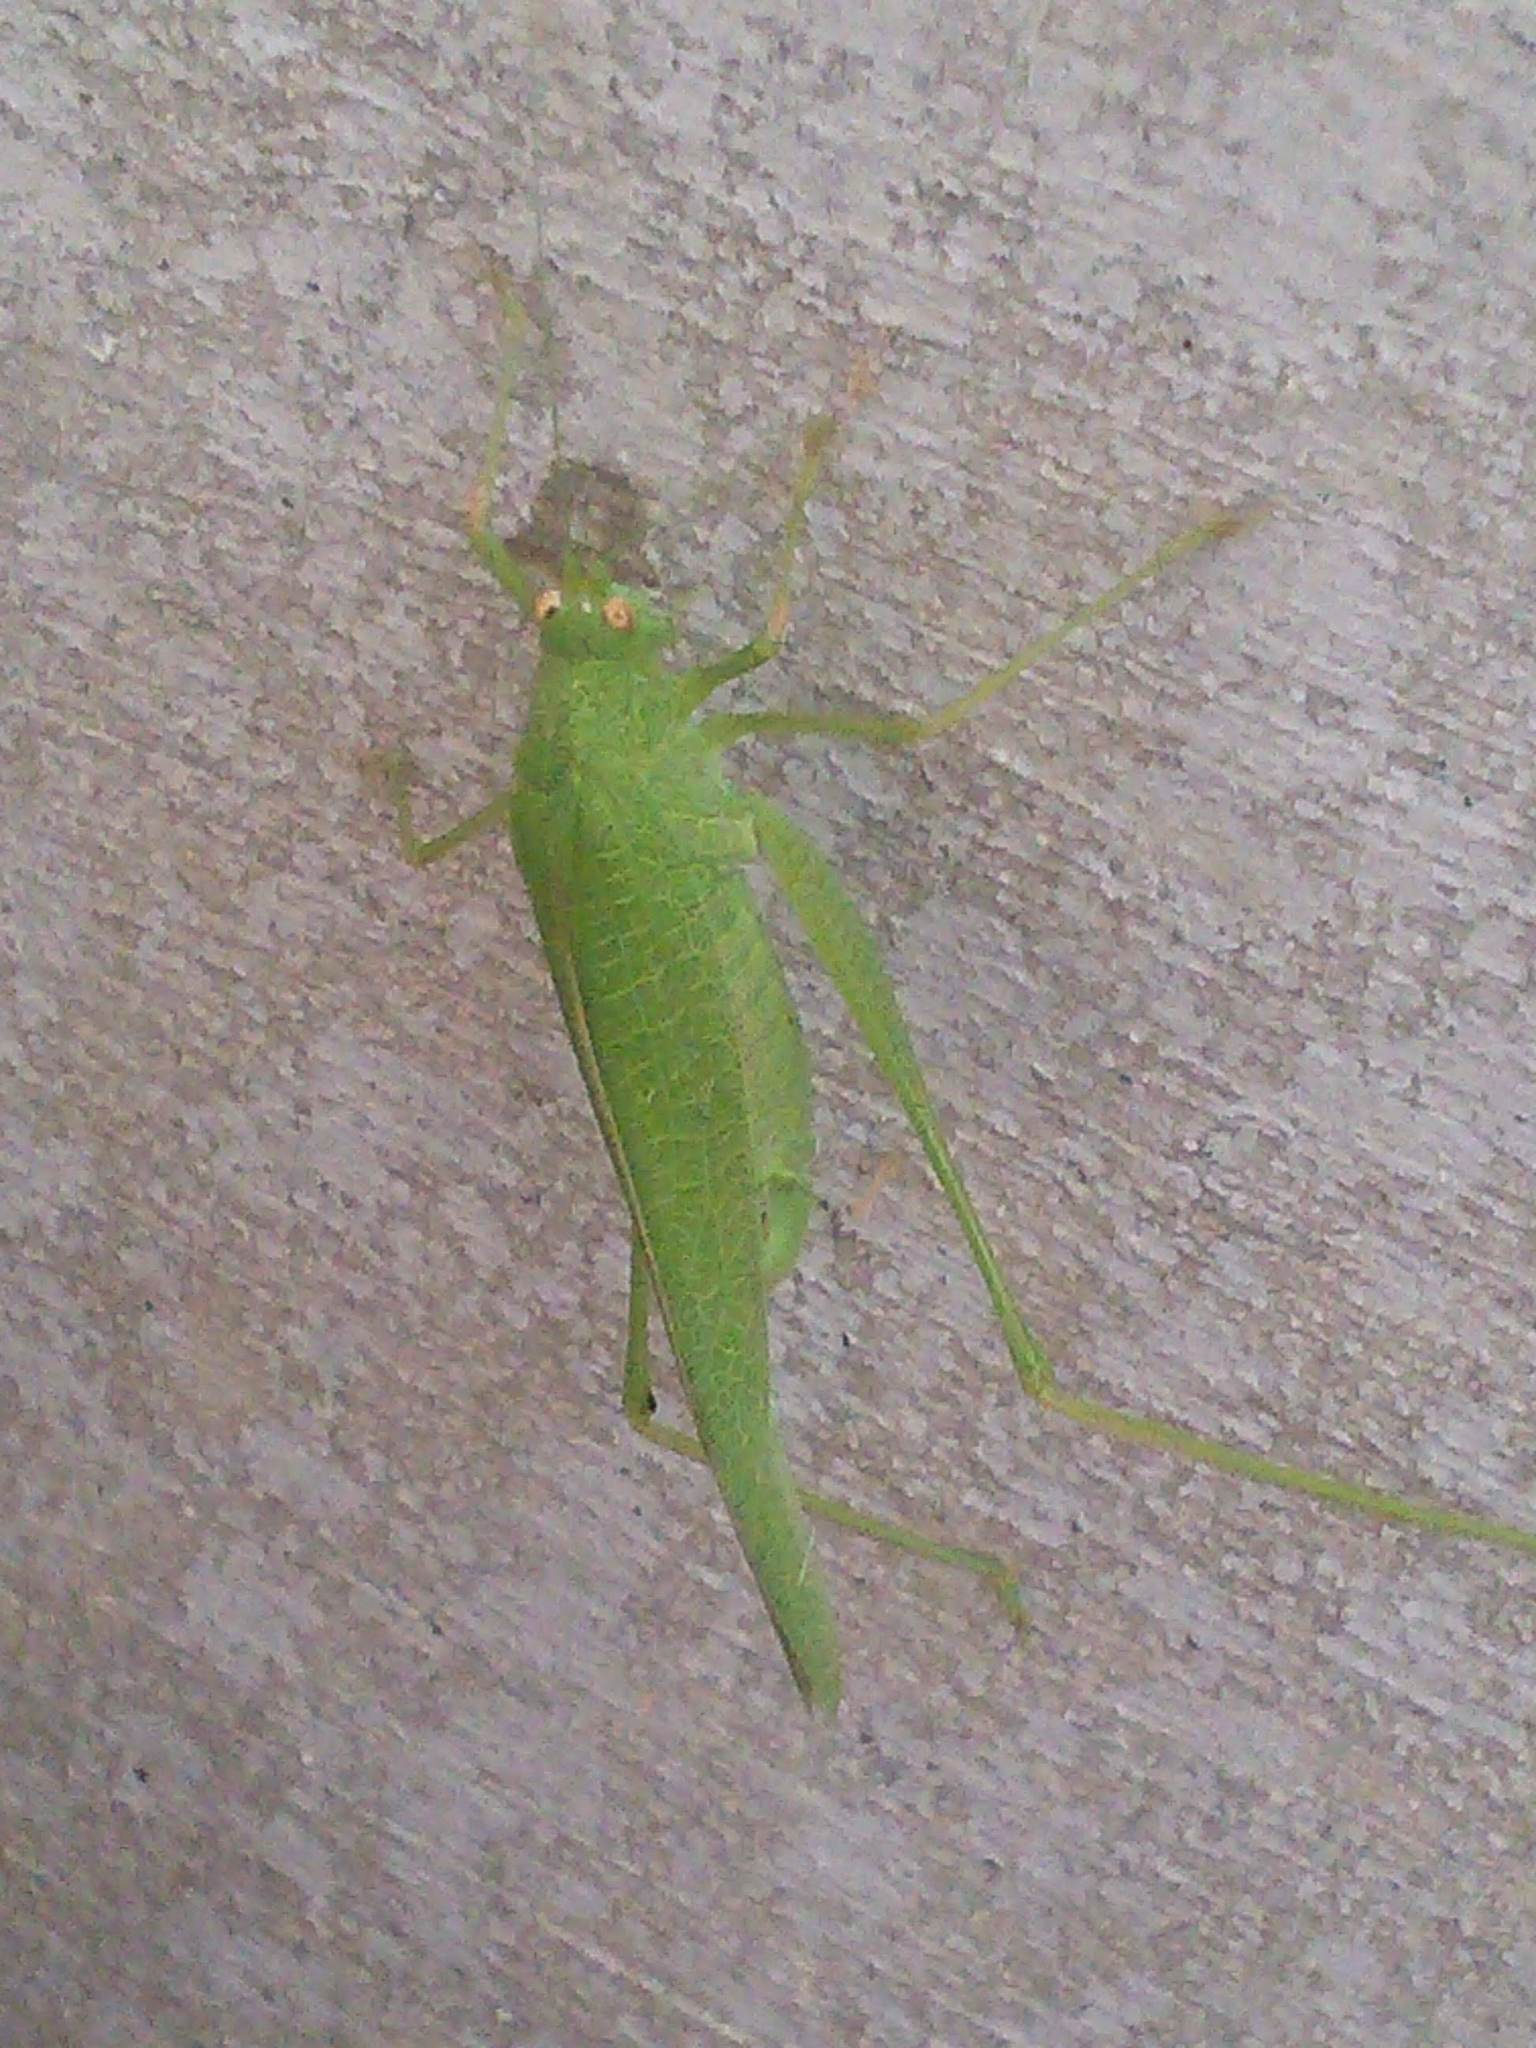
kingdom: Animalia
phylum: Arthropoda
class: Insecta
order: Orthoptera
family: Tettigoniidae
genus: Phaneroptera
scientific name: Phaneroptera nana
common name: Southern sickle bush-cricket
